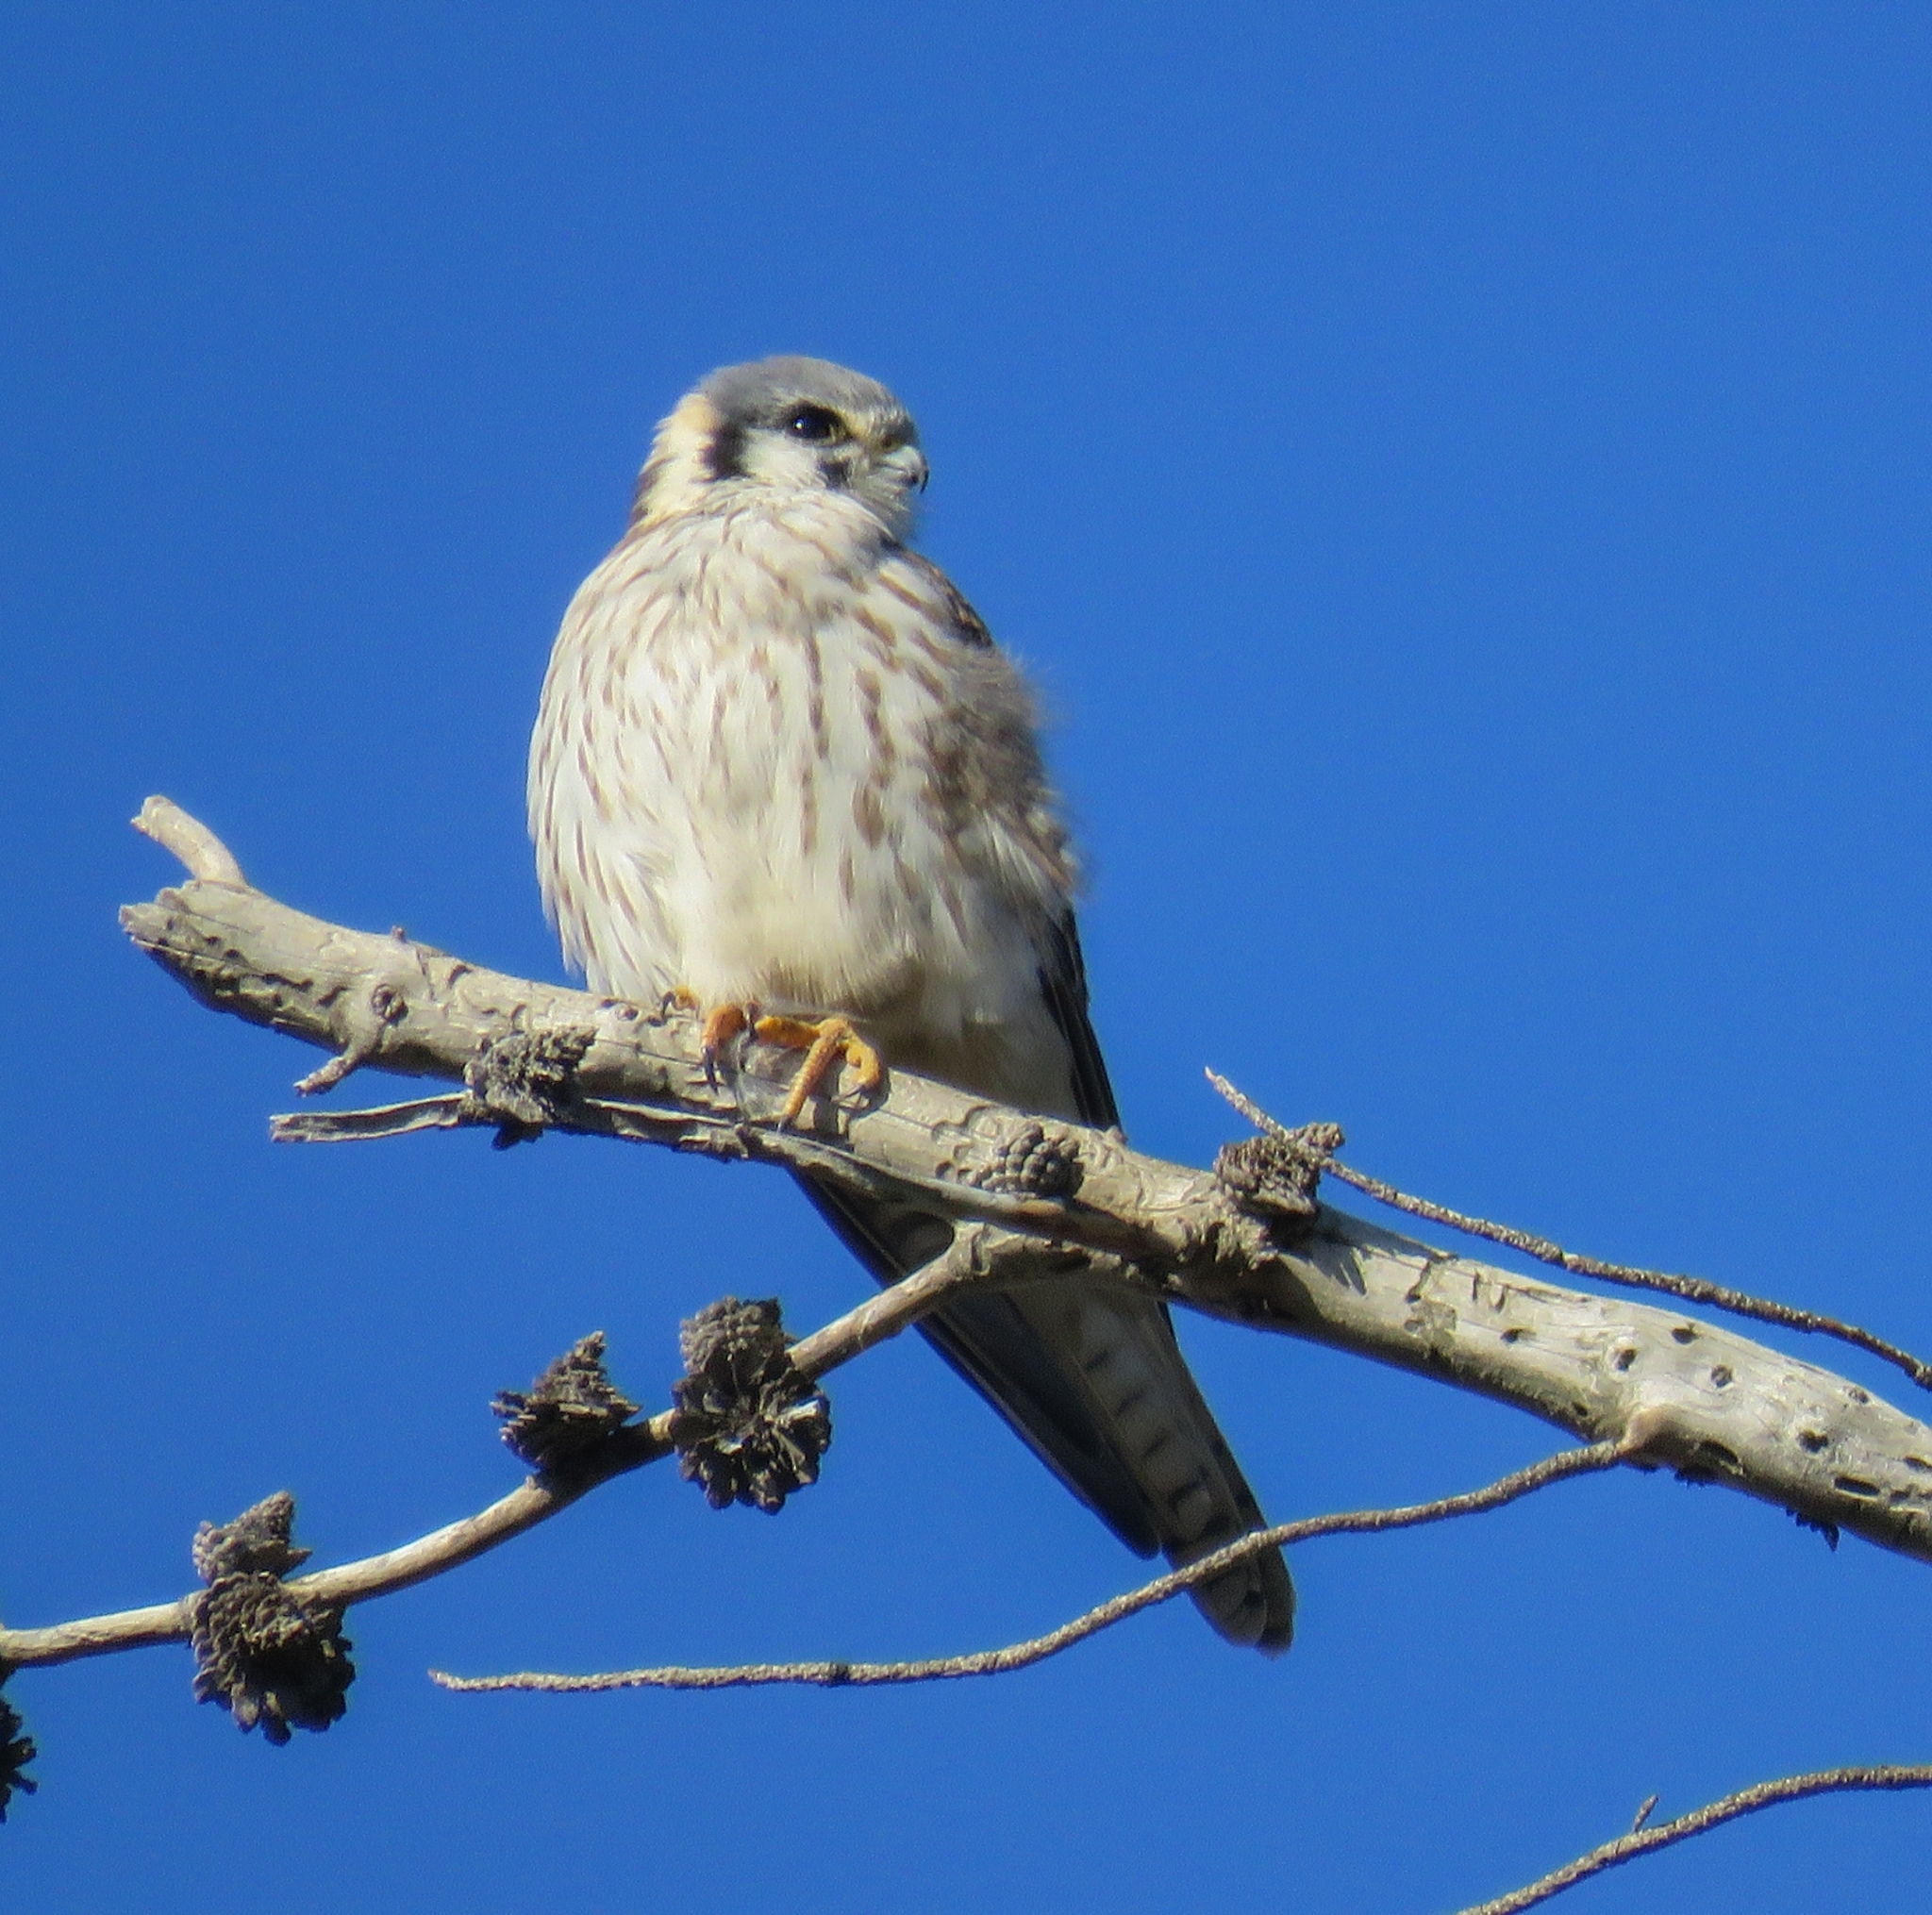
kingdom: Animalia
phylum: Chordata
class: Aves
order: Falconiformes
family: Falconidae
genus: Falco
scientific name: Falco sparverius
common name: American kestrel
